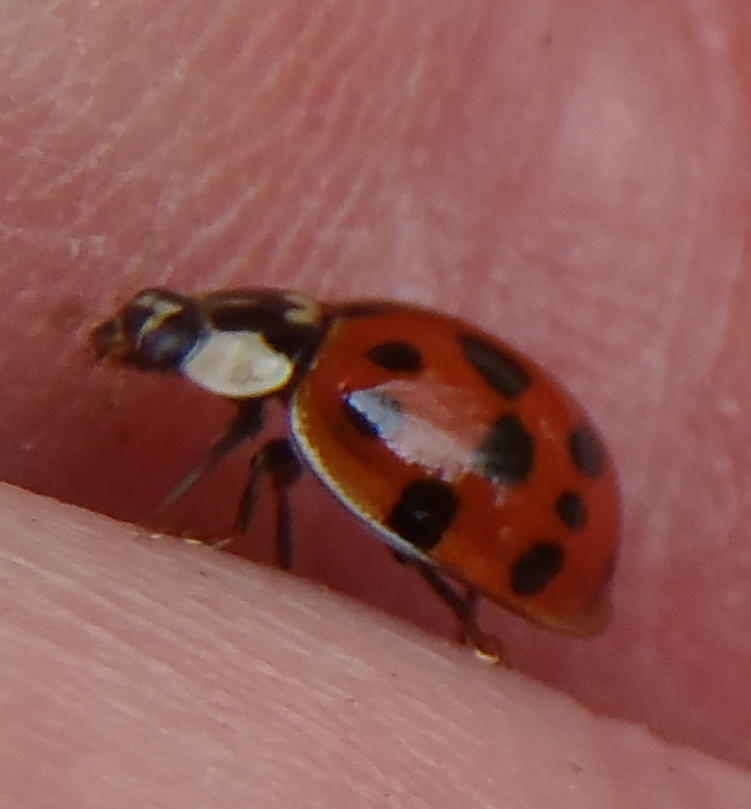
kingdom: Animalia
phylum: Arthropoda
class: Insecta
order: Coleoptera
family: Coccinellidae
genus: Harmonia
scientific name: Harmonia axyridis
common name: Harlequin ladybird
